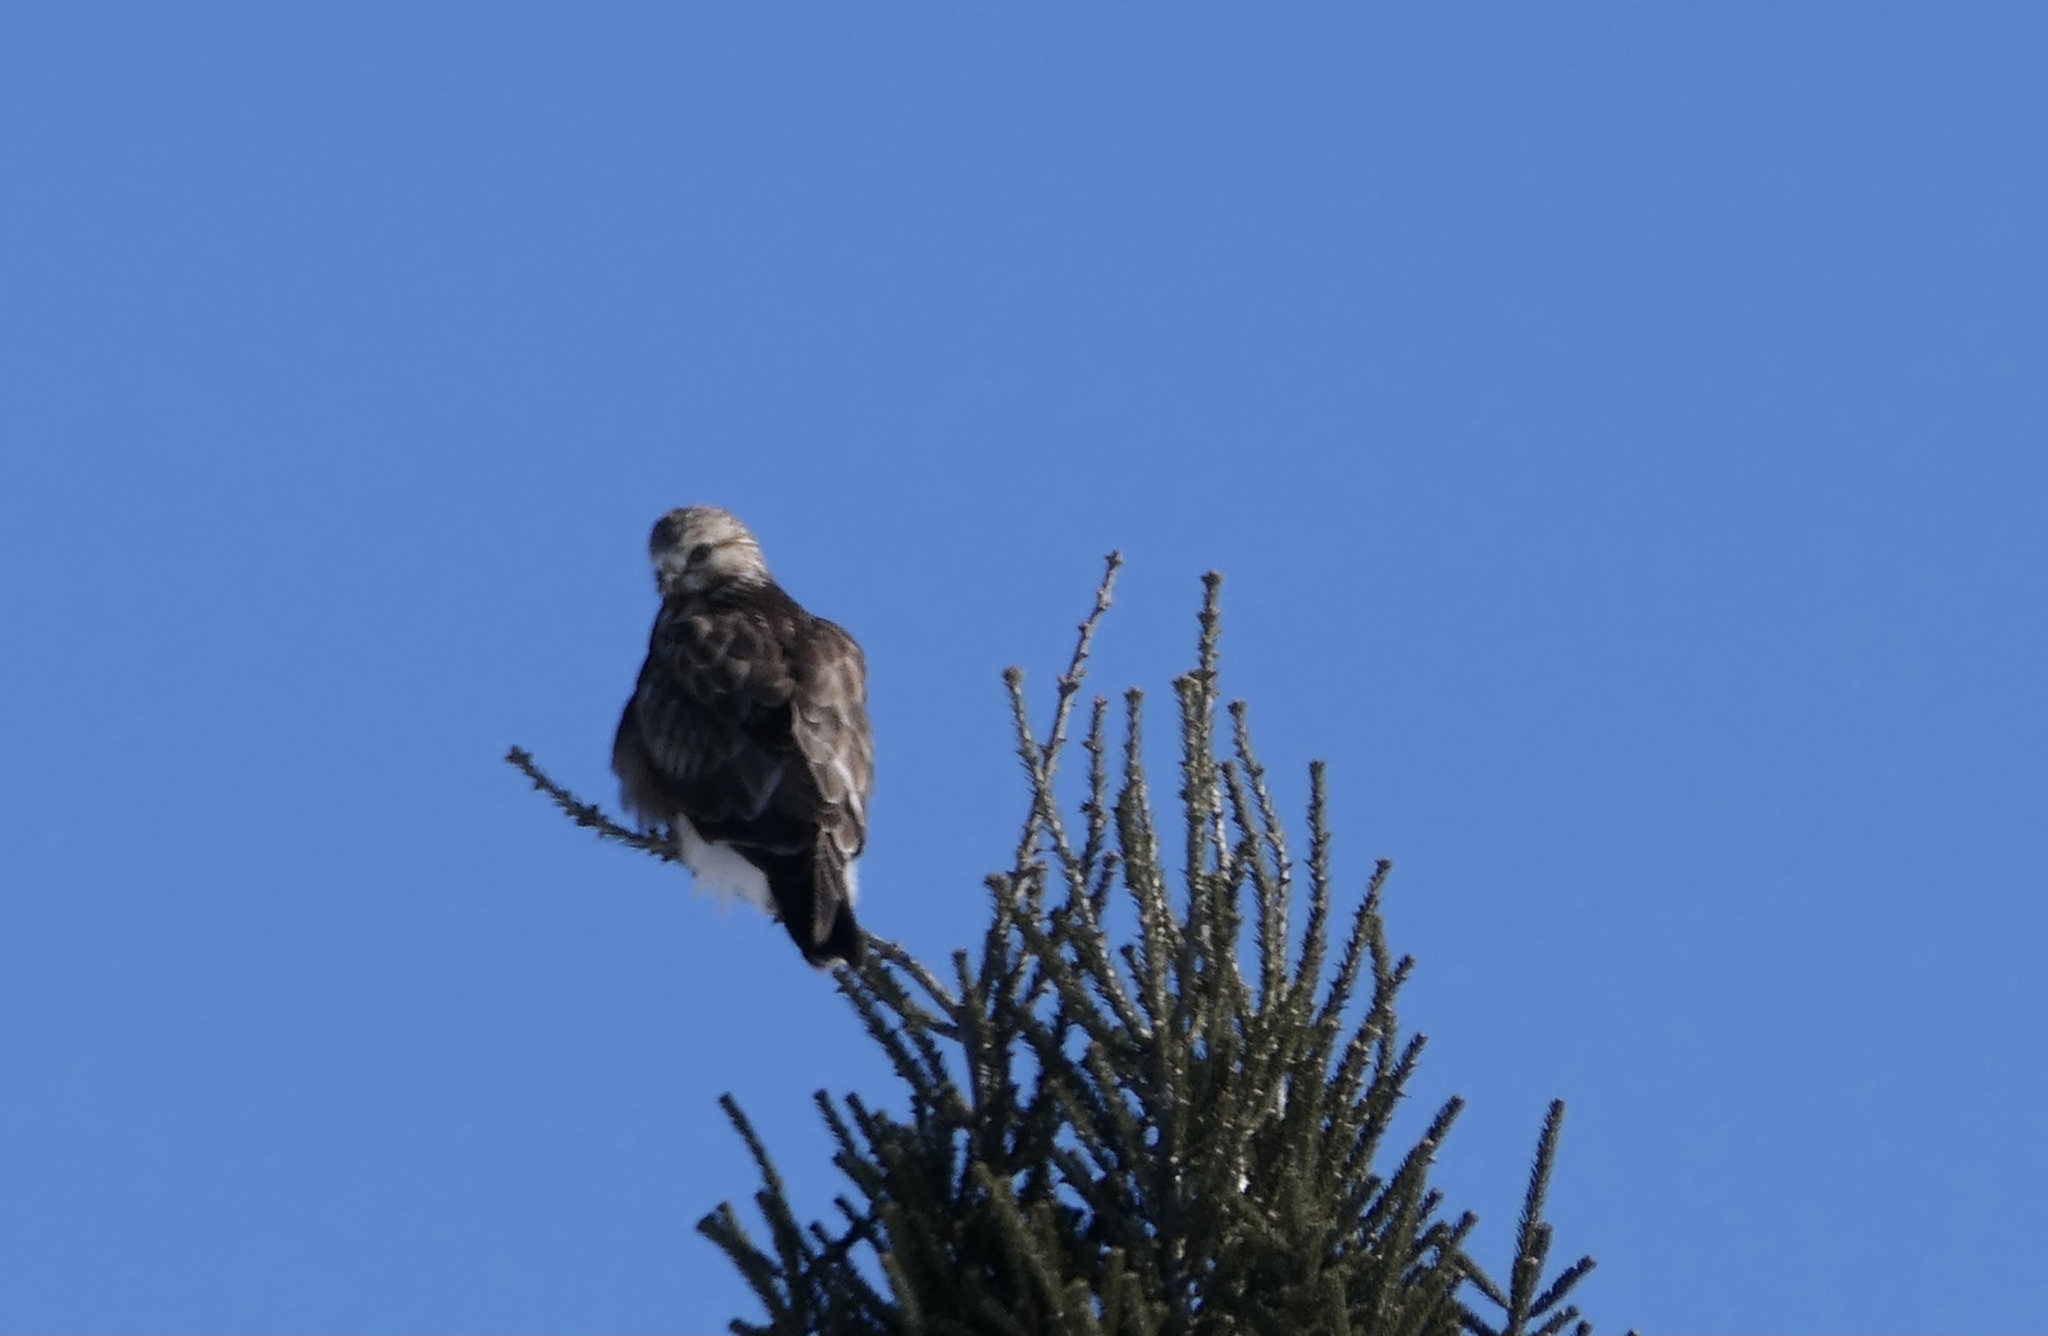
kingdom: Animalia
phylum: Chordata
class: Aves
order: Accipitriformes
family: Accipitridae
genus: Buteo
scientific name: Buteo lagopus
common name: Rough-legged buzzard
